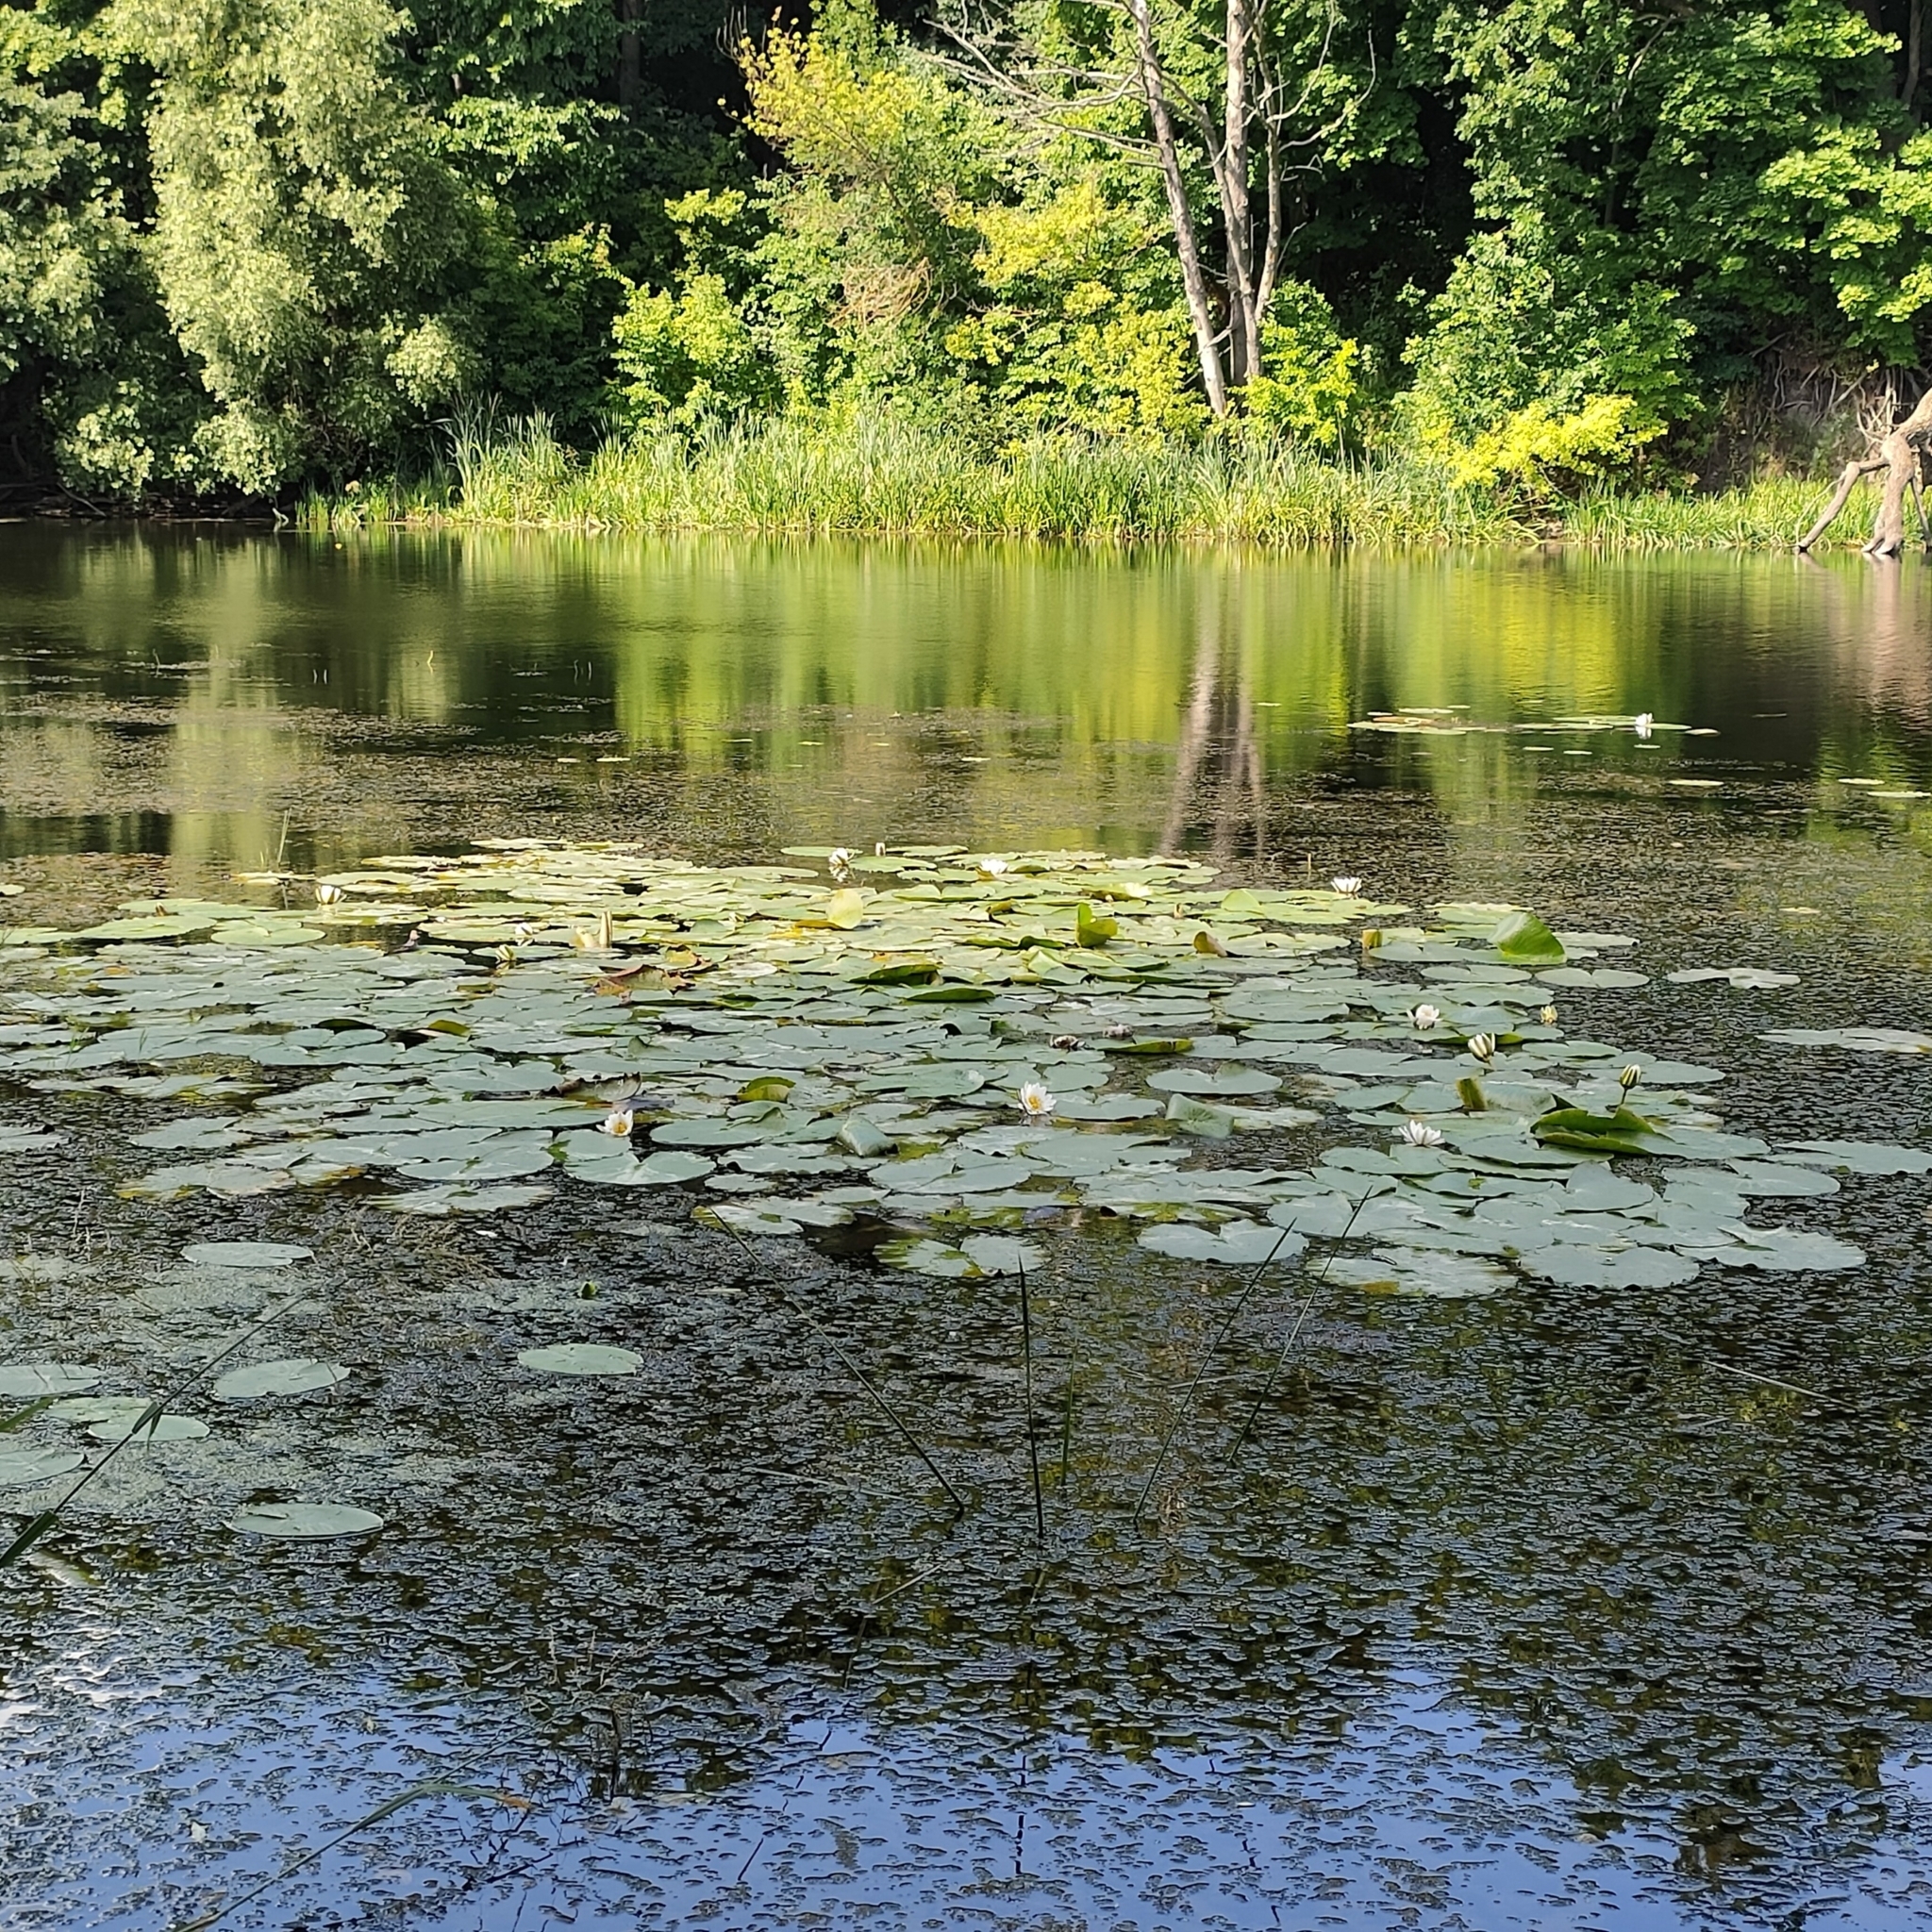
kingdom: Plantae
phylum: Tracheophyta
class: Magnoliopsida
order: Nymphaeales
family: Nymphaeaceae
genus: Nymphaea
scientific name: Nymphaea candida
